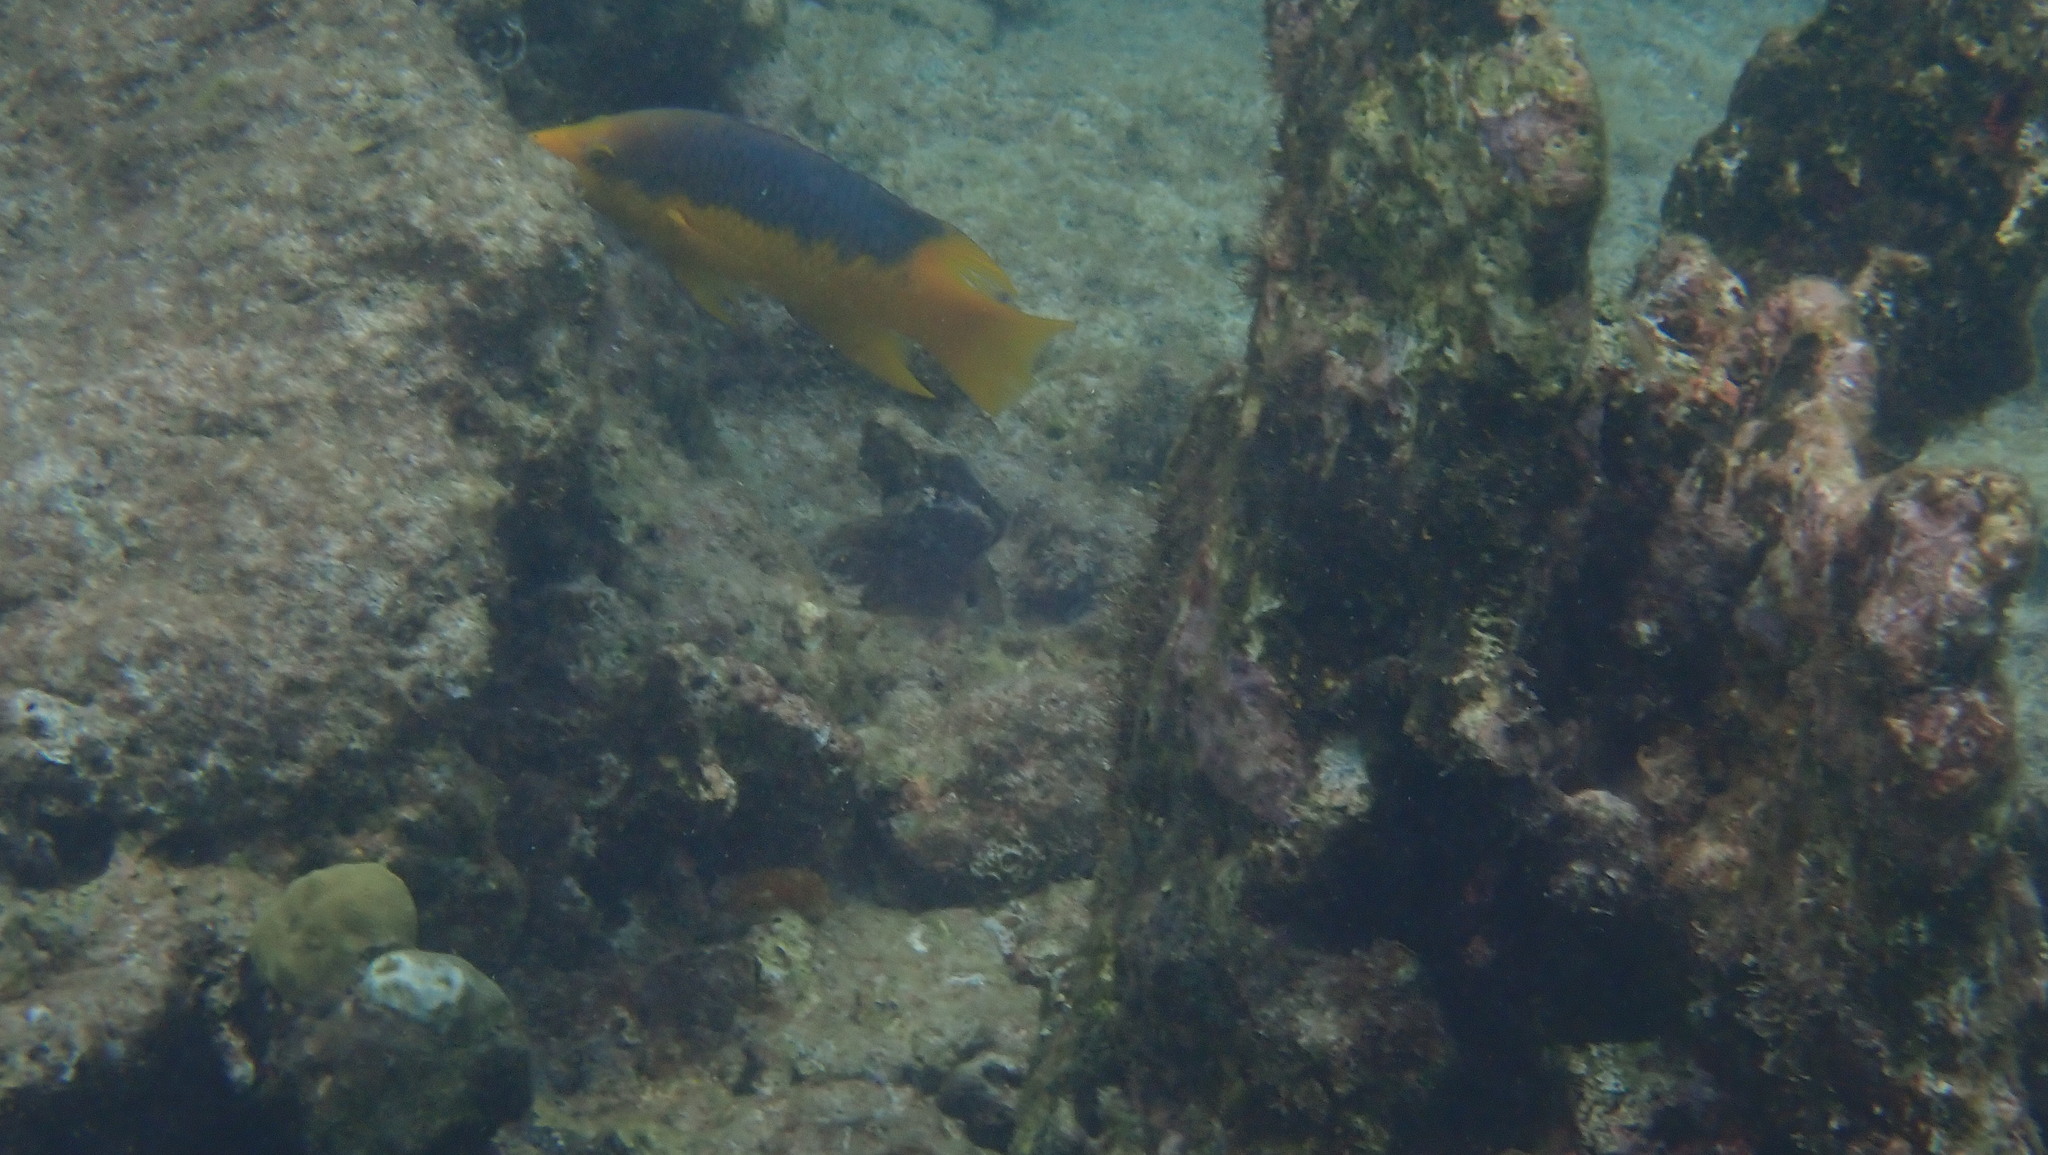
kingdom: Animalia
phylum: Chordata
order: Perciformes
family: Labridae
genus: Bodianus
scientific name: Bodianus rufus
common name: Spanish hogfish
